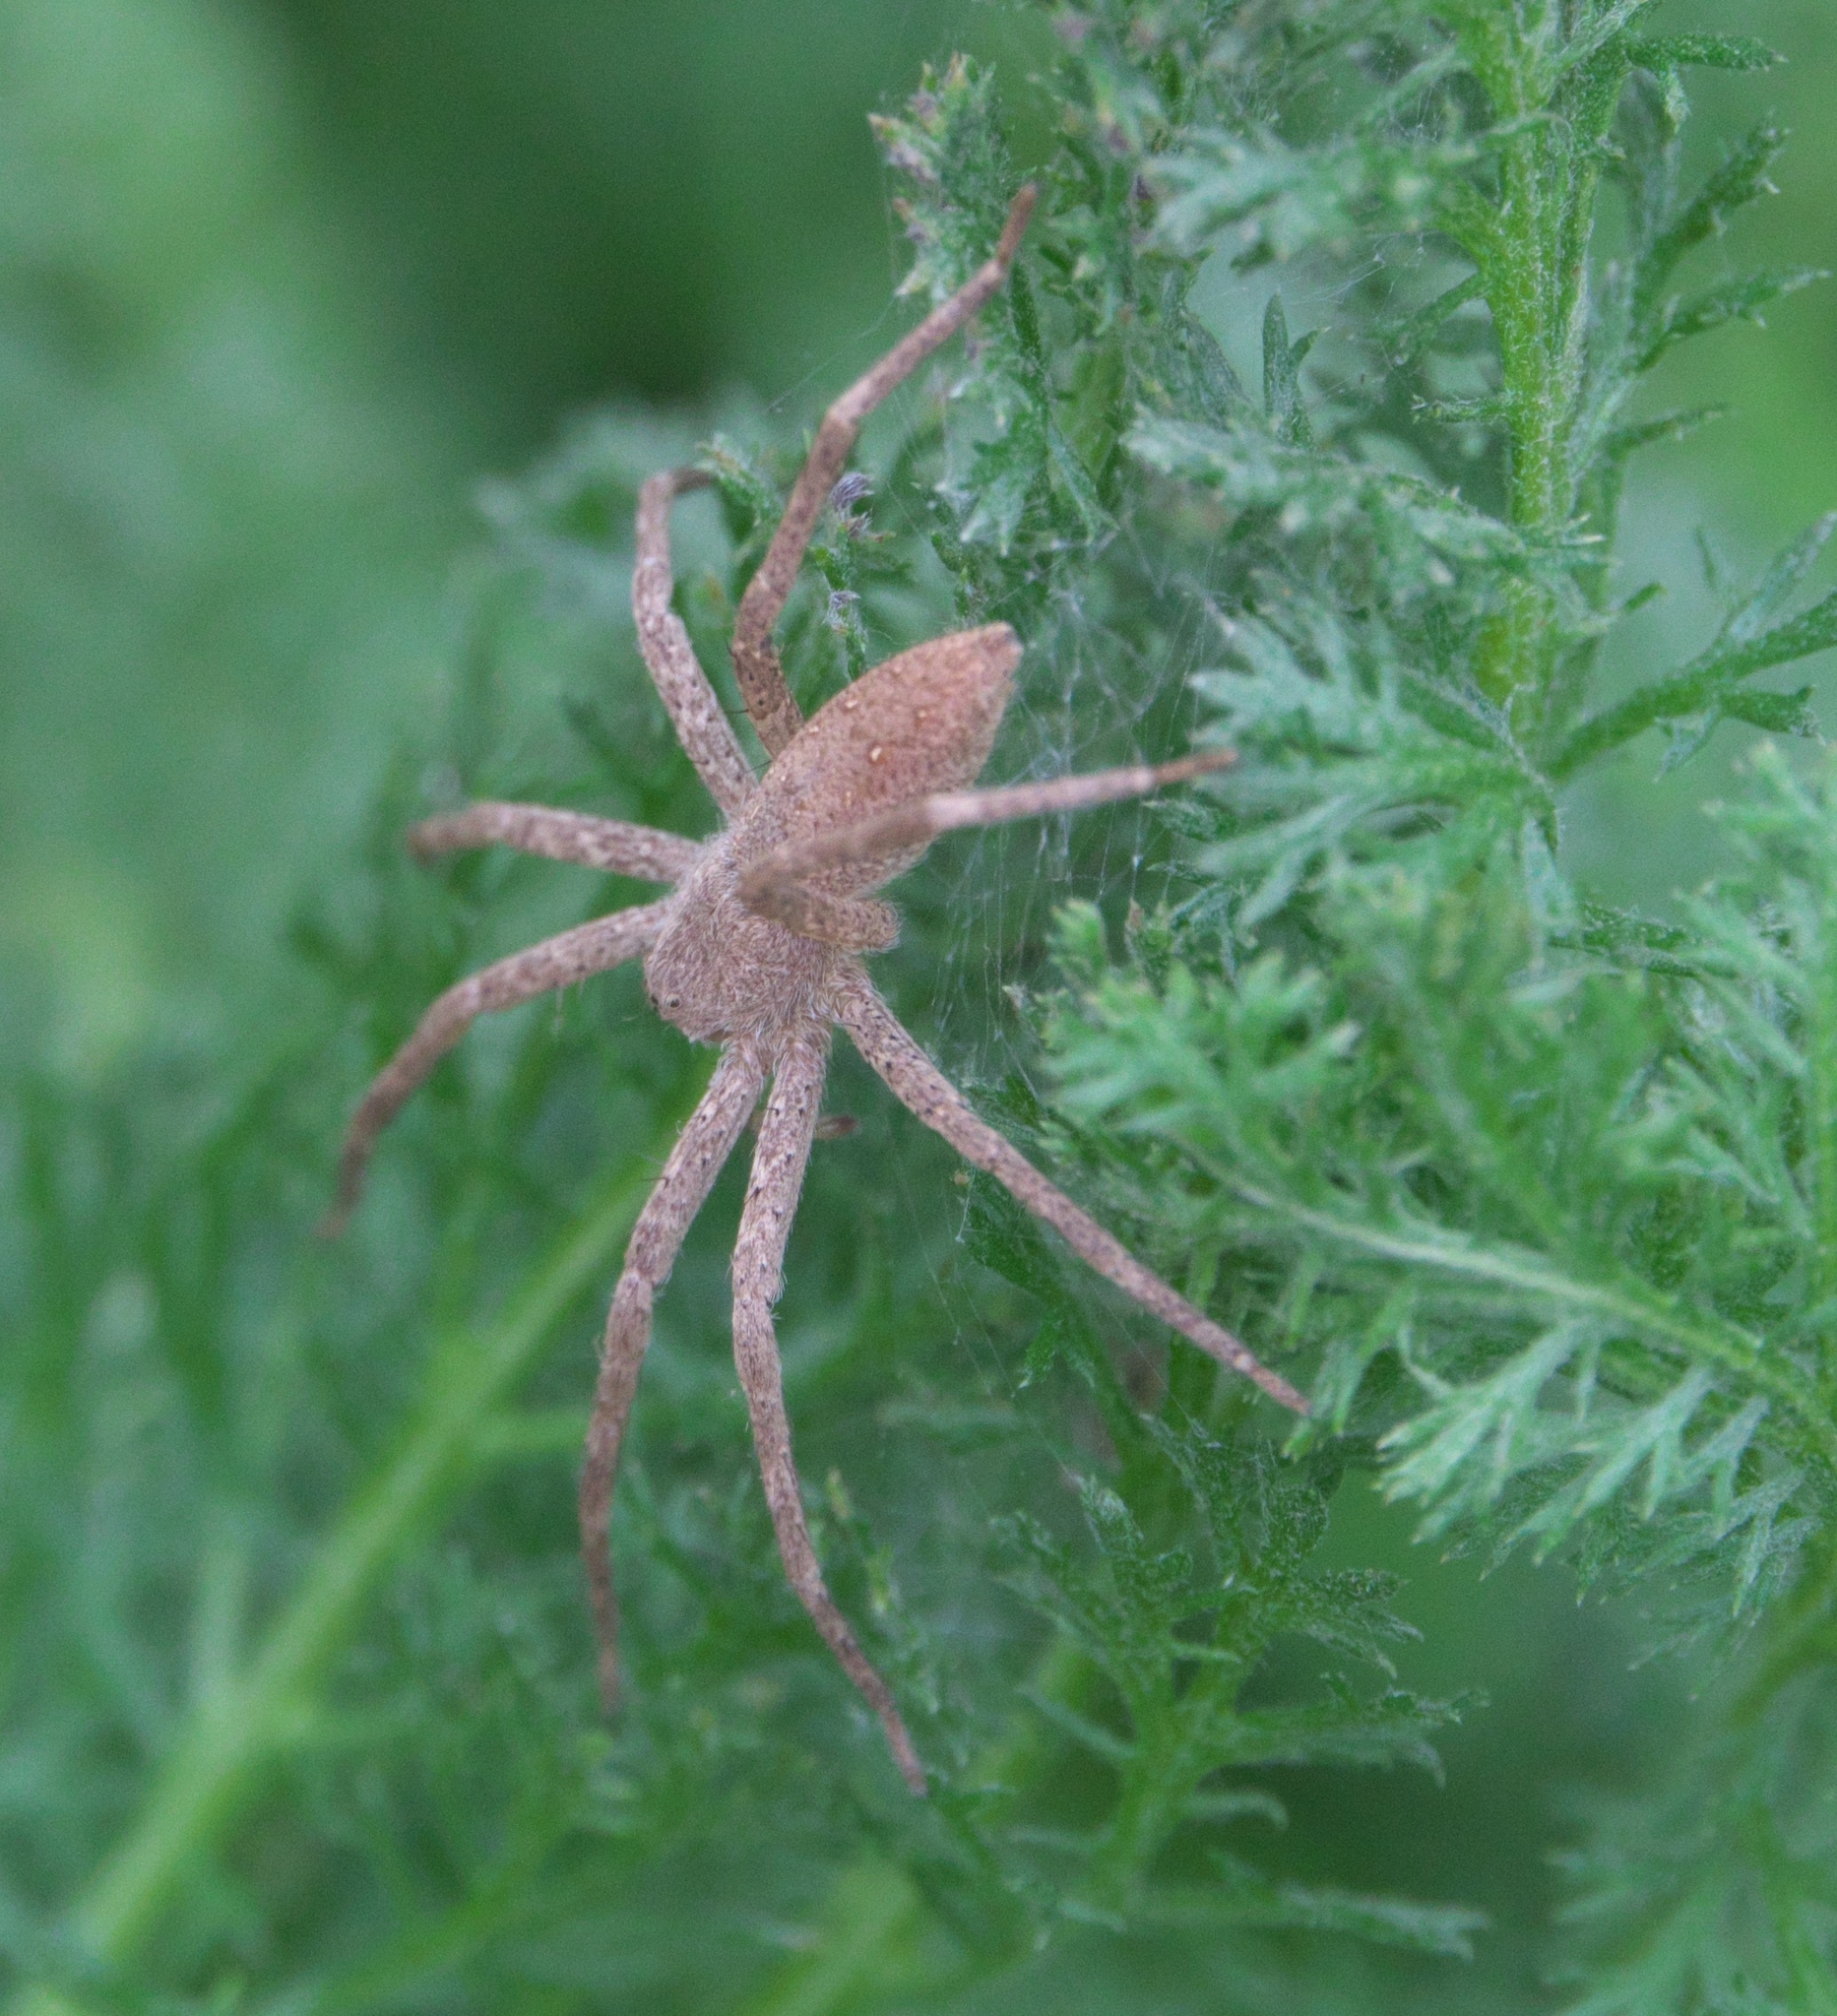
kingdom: Animalia
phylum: Arthropoda
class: Arachnida
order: Araneae
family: Pisauridae
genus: Pisaurina
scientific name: Pisaurina mira
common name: American nursery web spider
